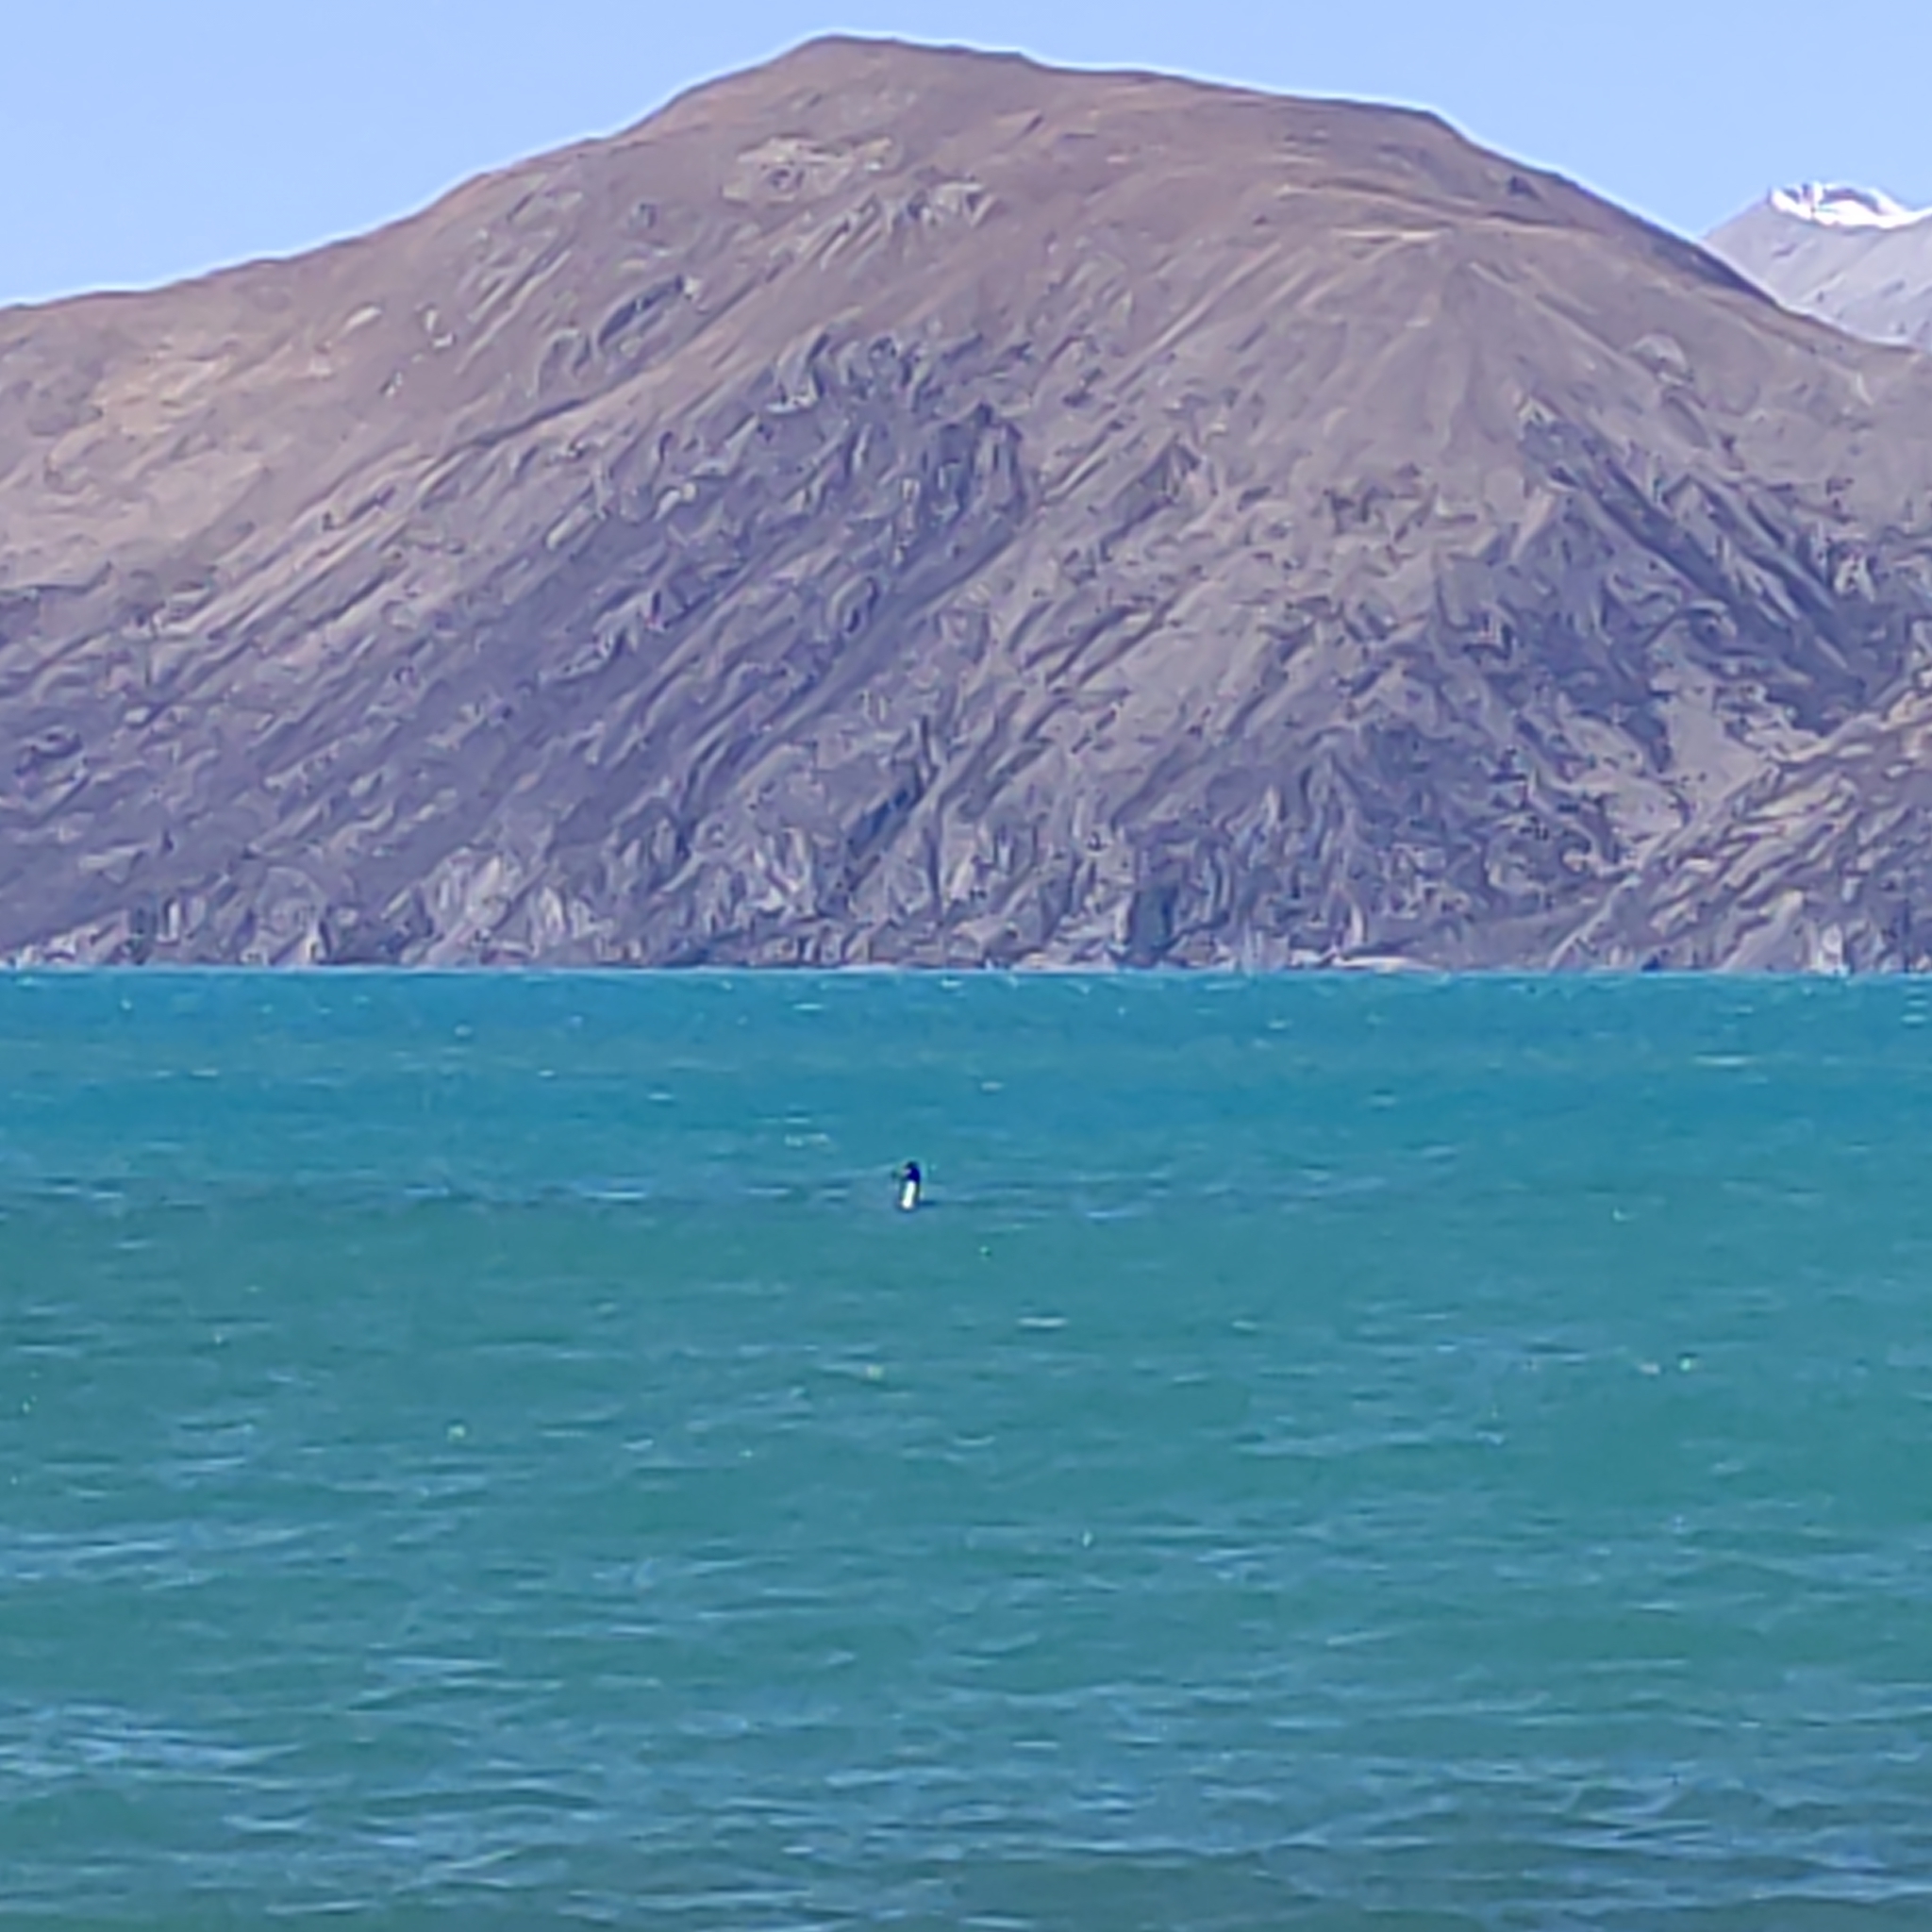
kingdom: Animalia
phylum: Chordata
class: Aves
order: Podicipediformes
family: Podicipedidae
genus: Podiceps
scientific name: Podiceps cristatus
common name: Great crested grebe
